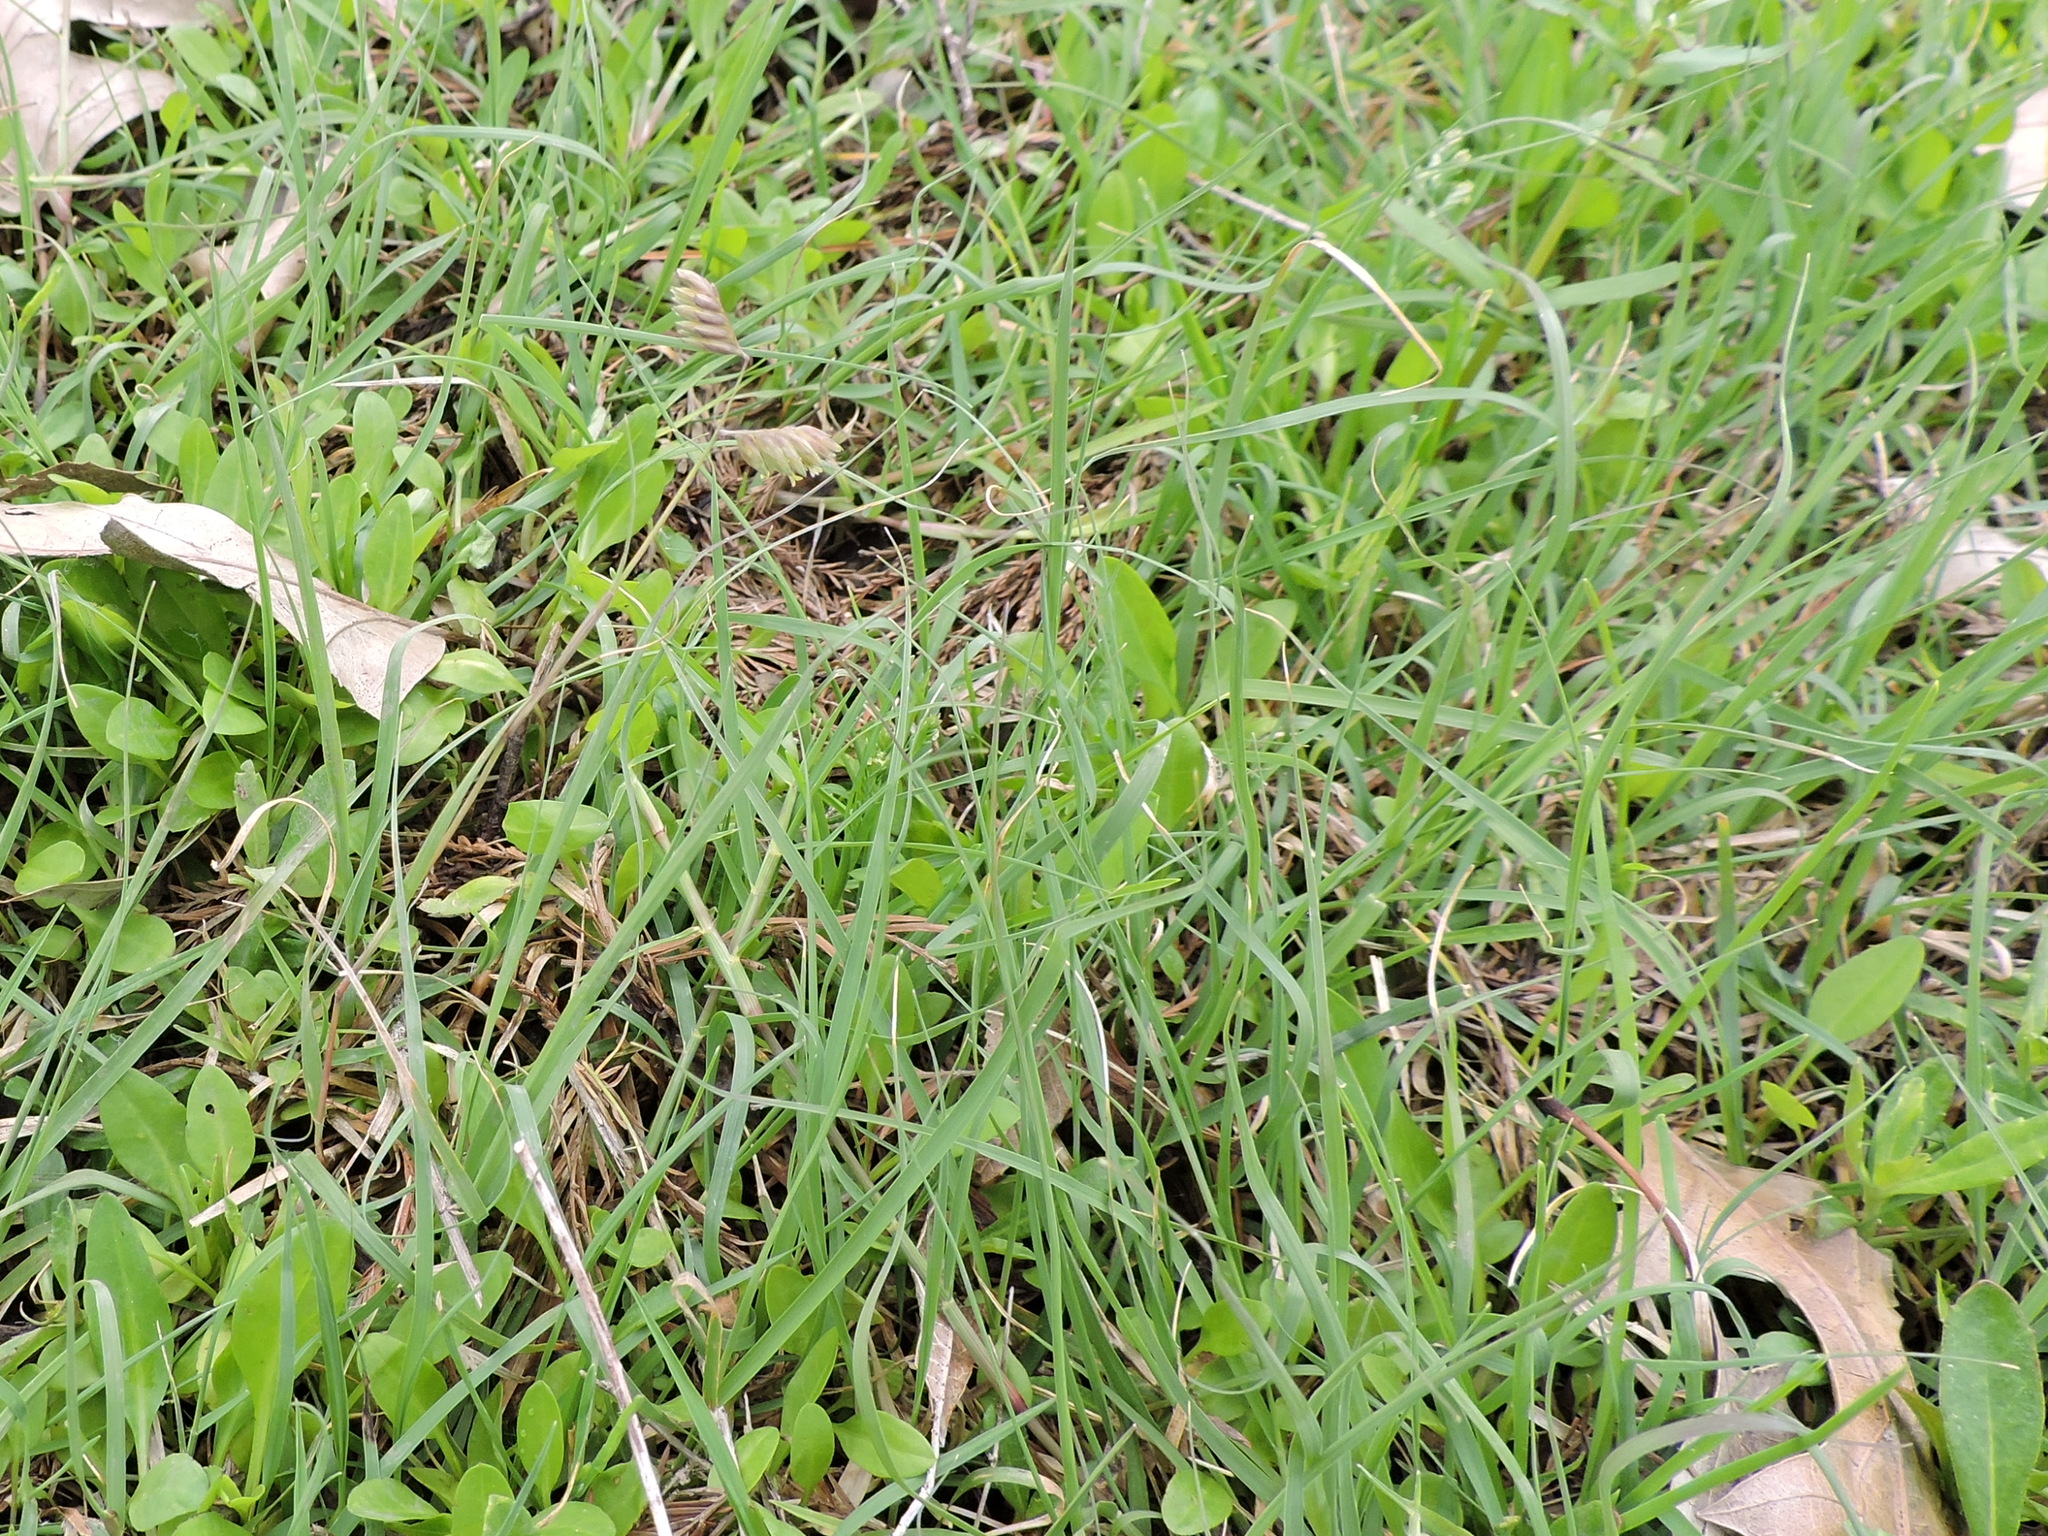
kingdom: Plantae
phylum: Tracheophyta
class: Liliopsida
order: Poales
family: Poaceae
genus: Bouteloua
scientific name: Bouteloua dactyloides
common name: Buffalo grass
